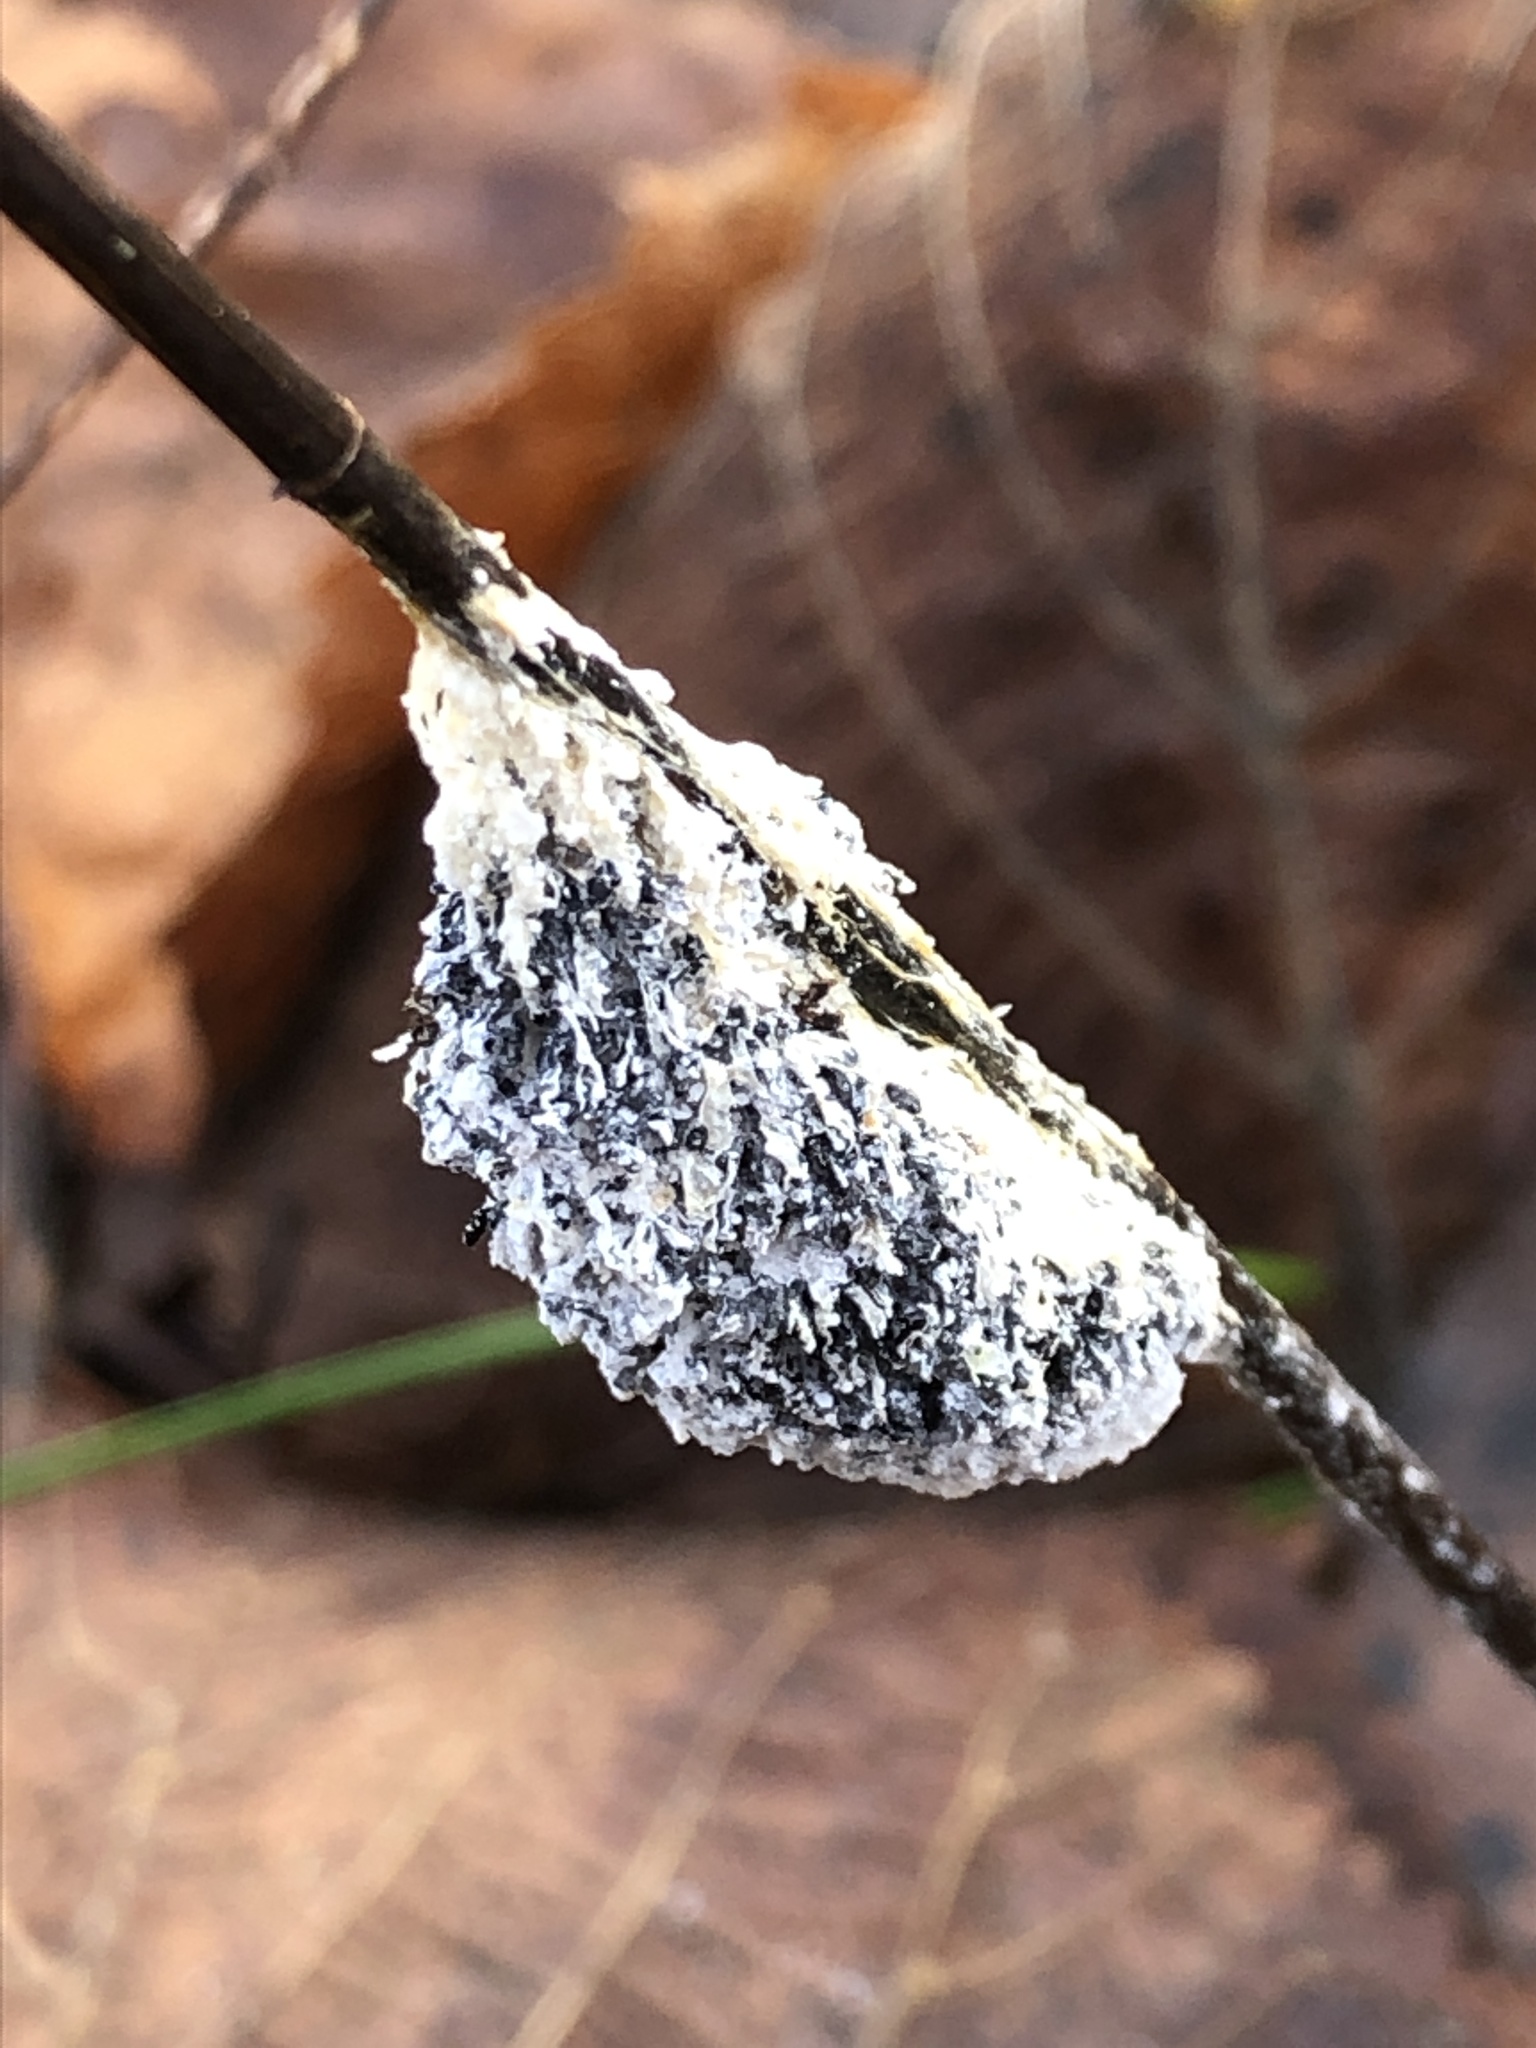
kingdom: Protozoa
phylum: Mycetozoa
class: Myxomycetes
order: Physarales
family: Physaraceae
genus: Didymium
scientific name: Didymium
